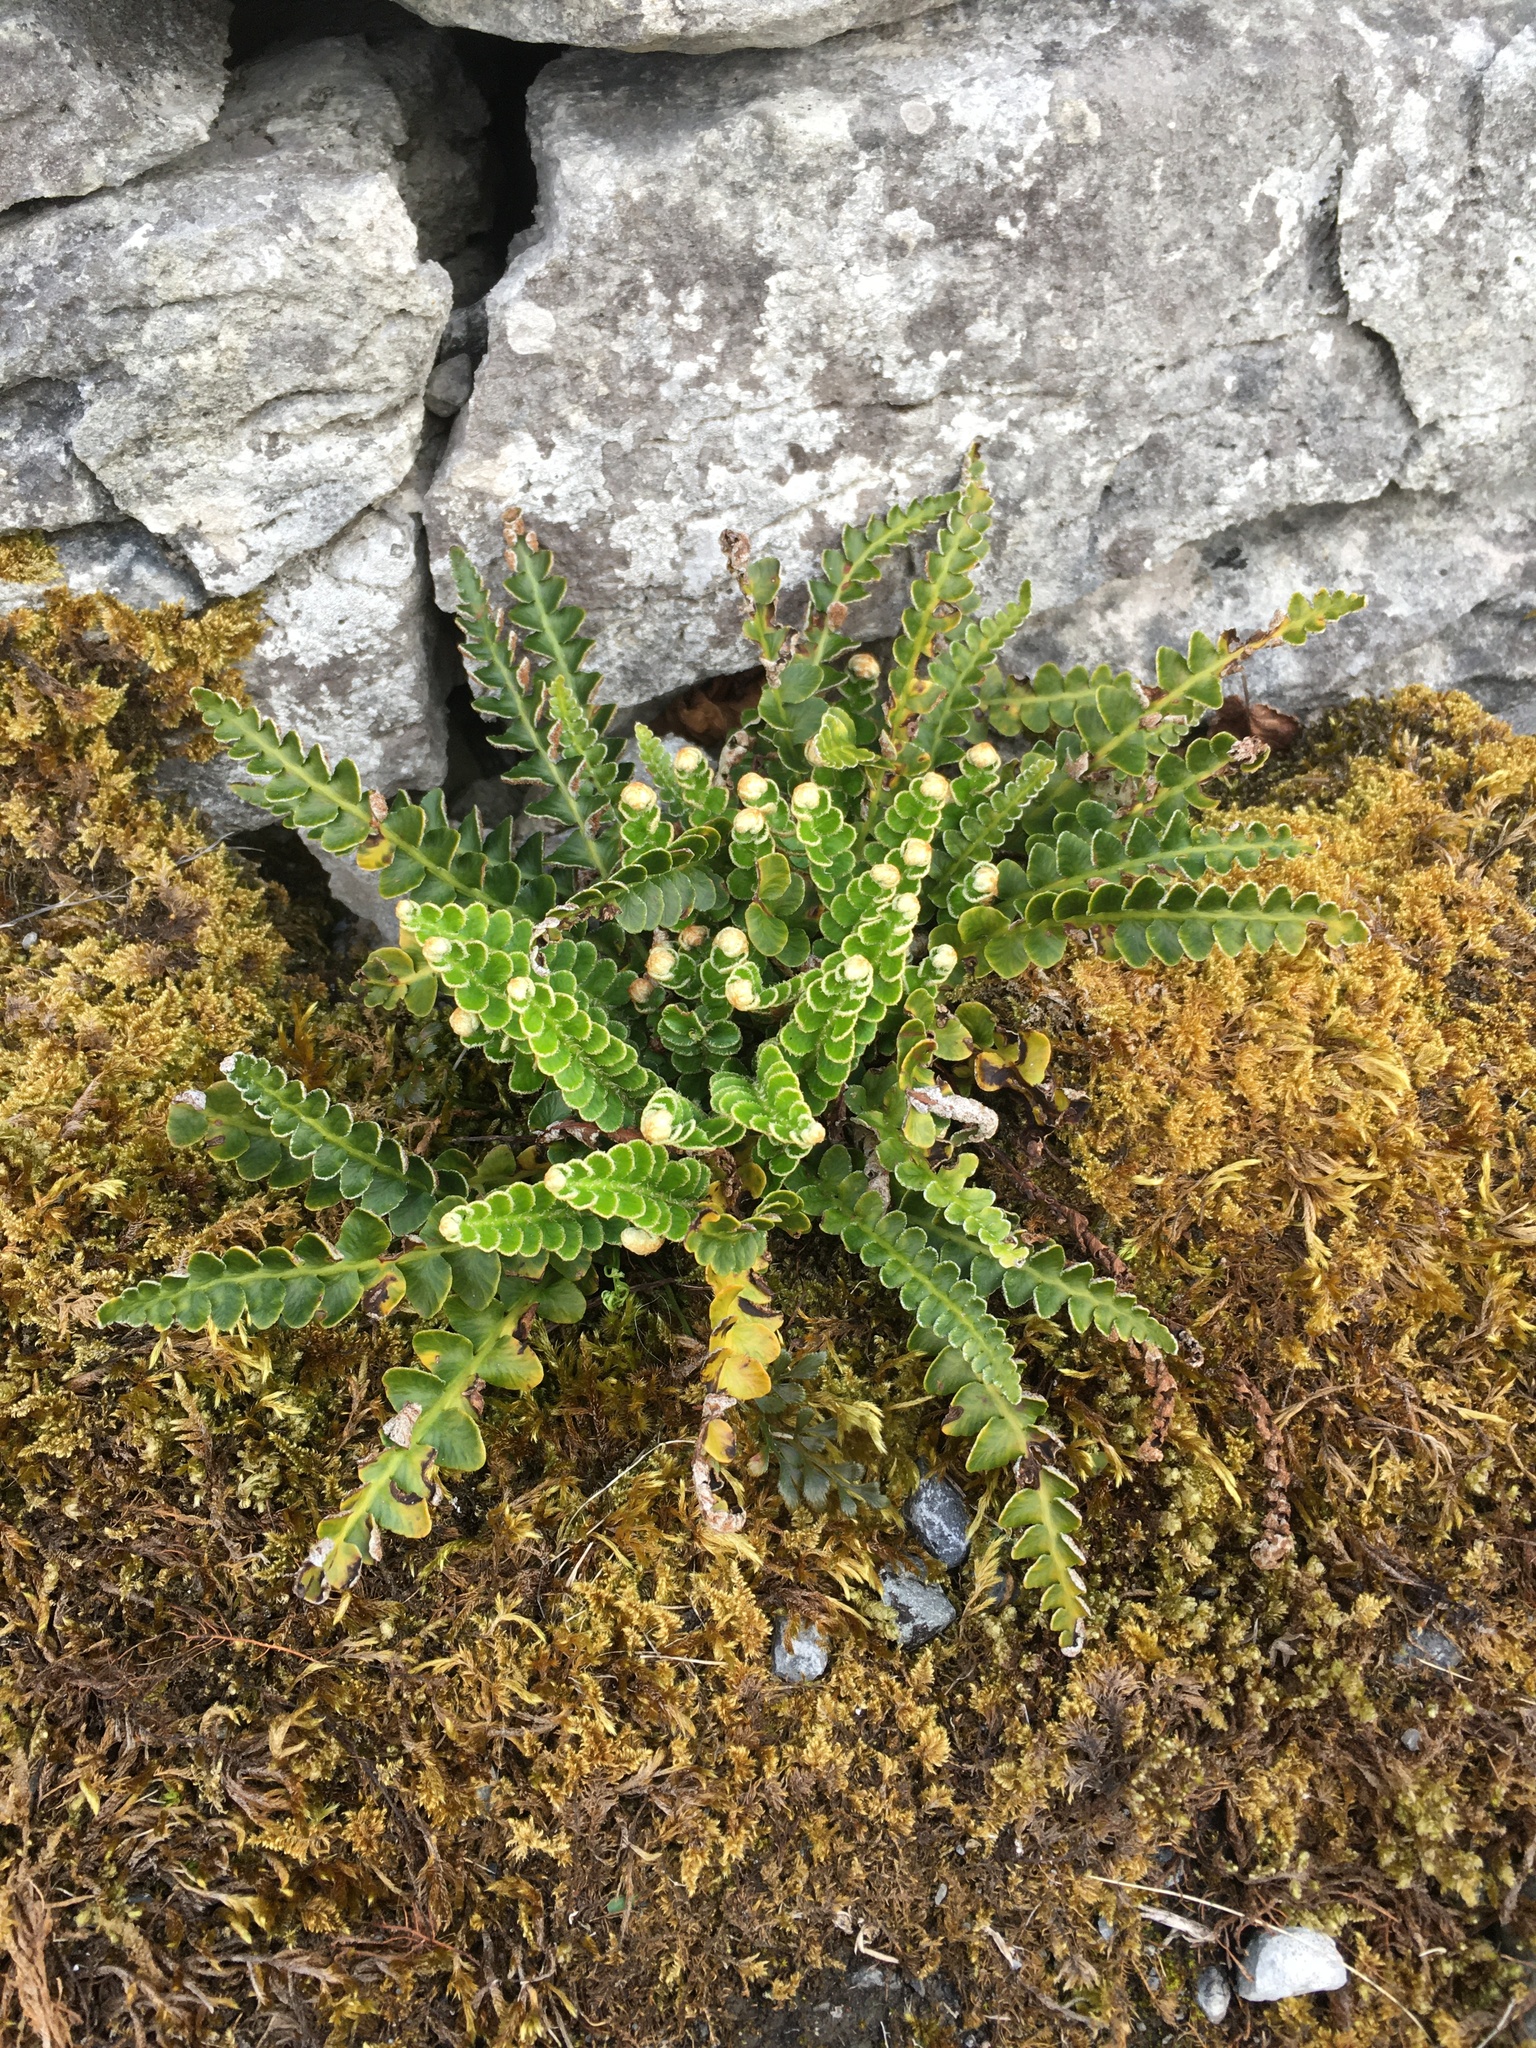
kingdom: Plantae
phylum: Tracheophyta
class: Polypodiopsida
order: Polypodiales
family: Aspleniaceae
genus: Asplenium
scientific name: Asplenium ceterach
